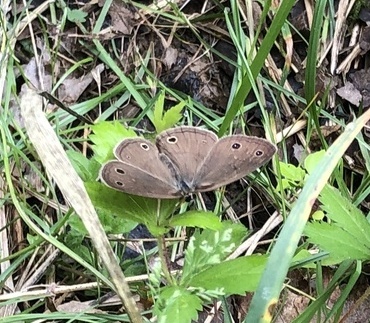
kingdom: Animalia
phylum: Arthropoda
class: Insecta
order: Lepidoptera
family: Nymphalidae
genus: Euptychia
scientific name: Euptychia cymela
